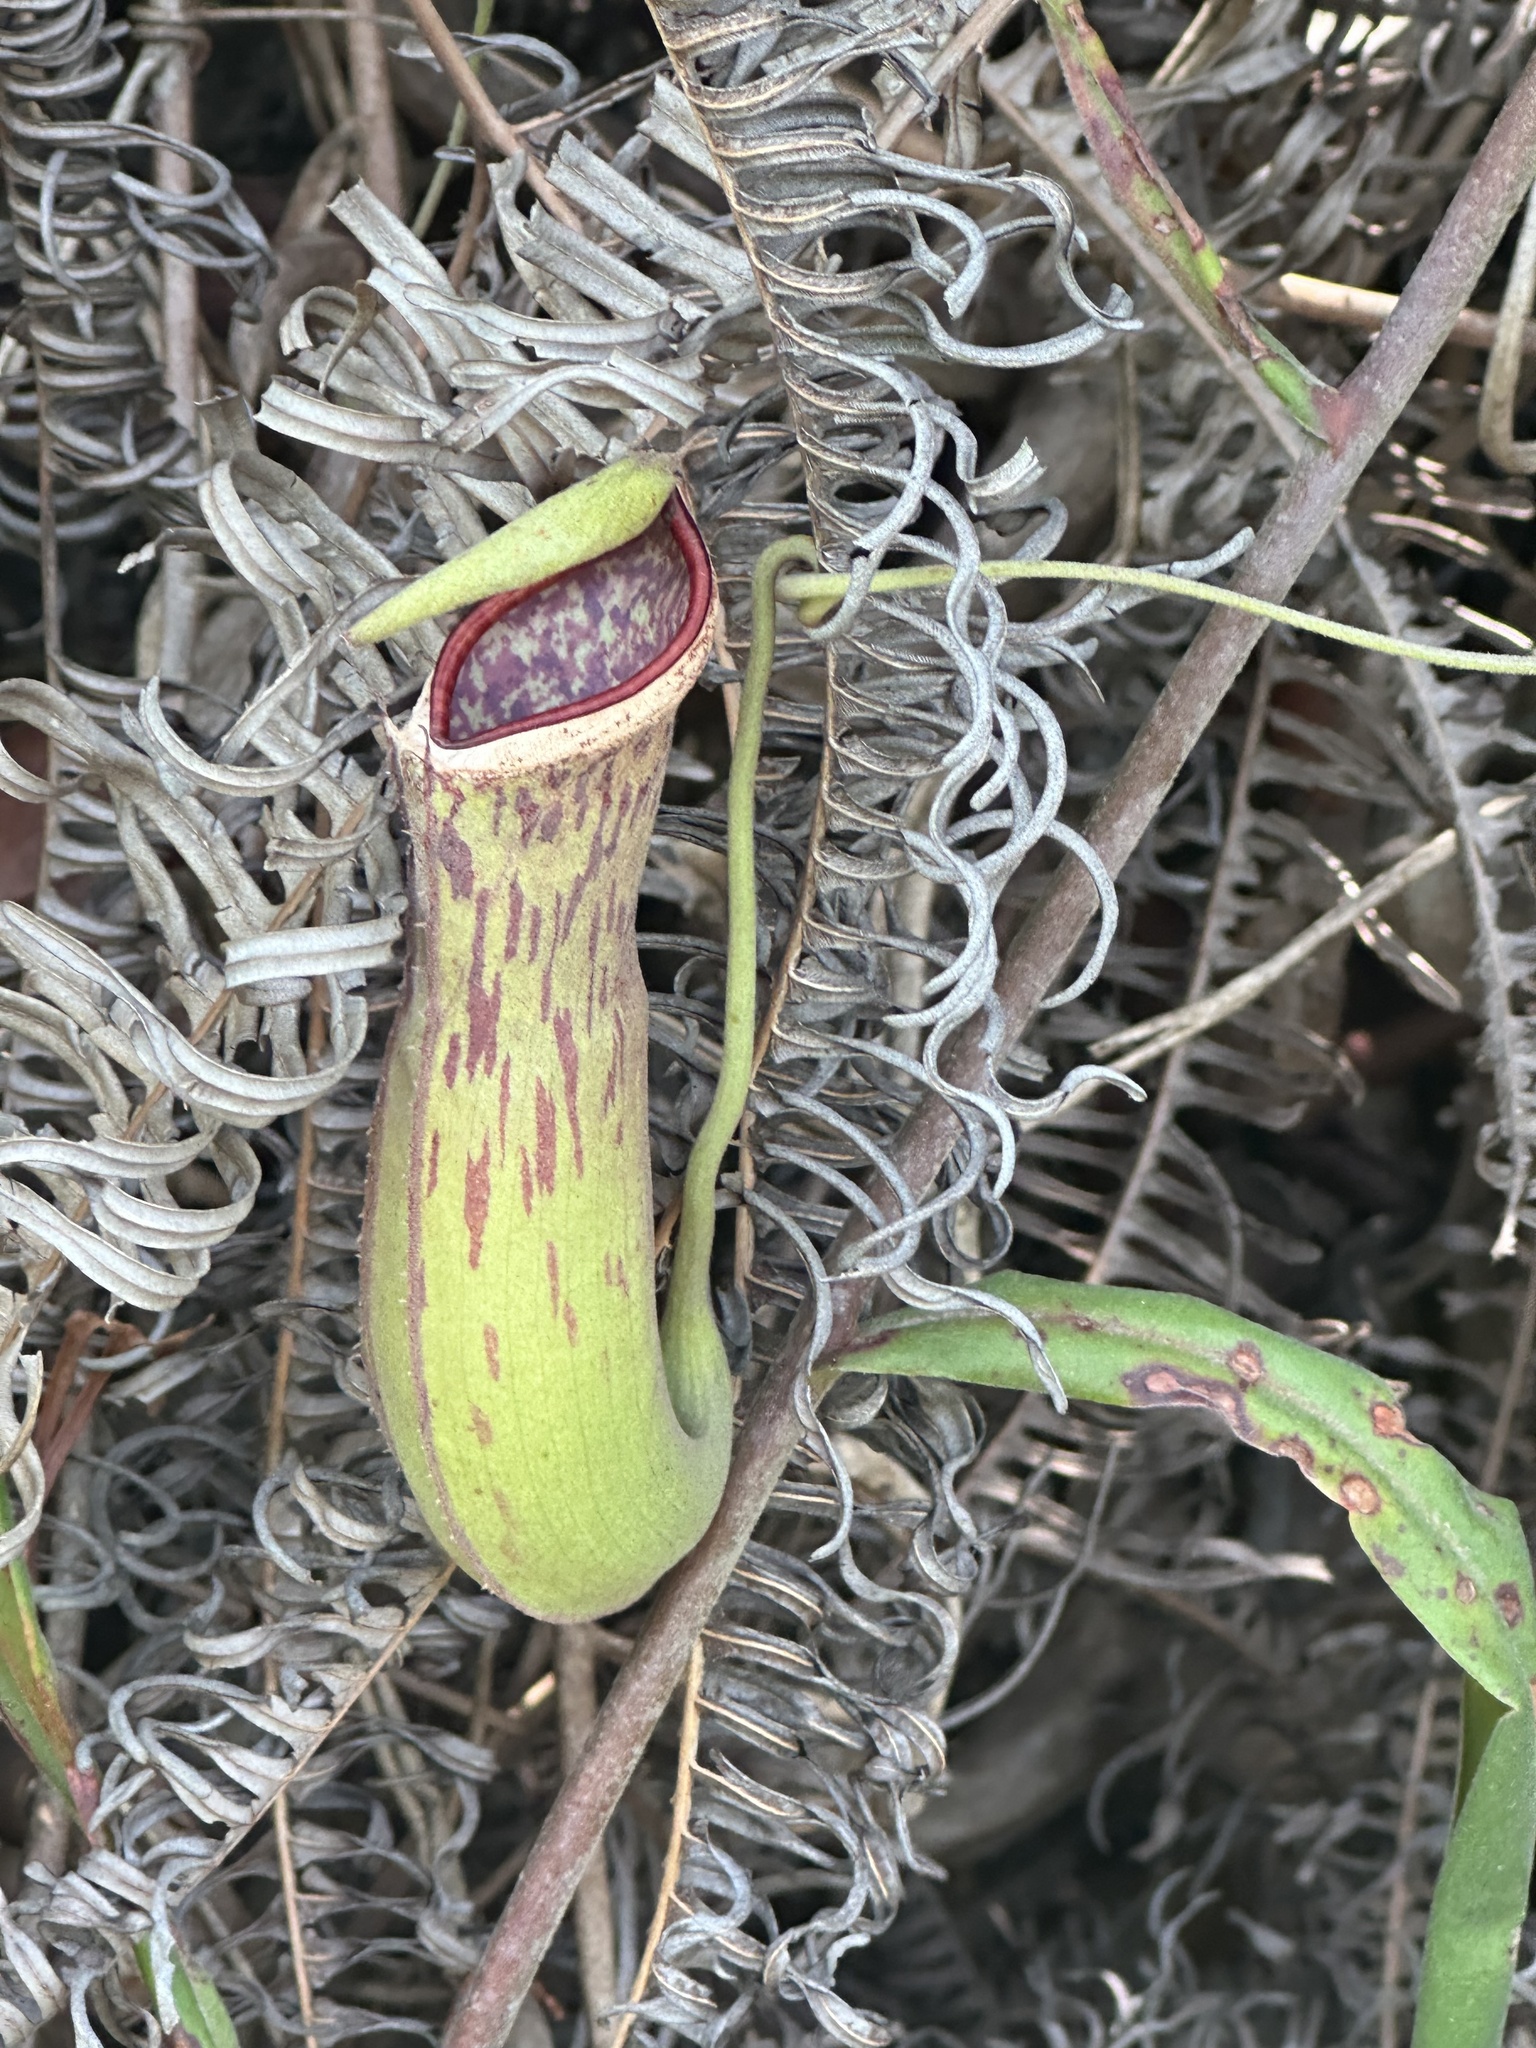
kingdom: Plantae
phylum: Tracheophyta
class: Magnoliopsida
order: Caryophyllales
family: Nepenthaceae
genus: Nepenthes
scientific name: Nepenthes albomarginata
